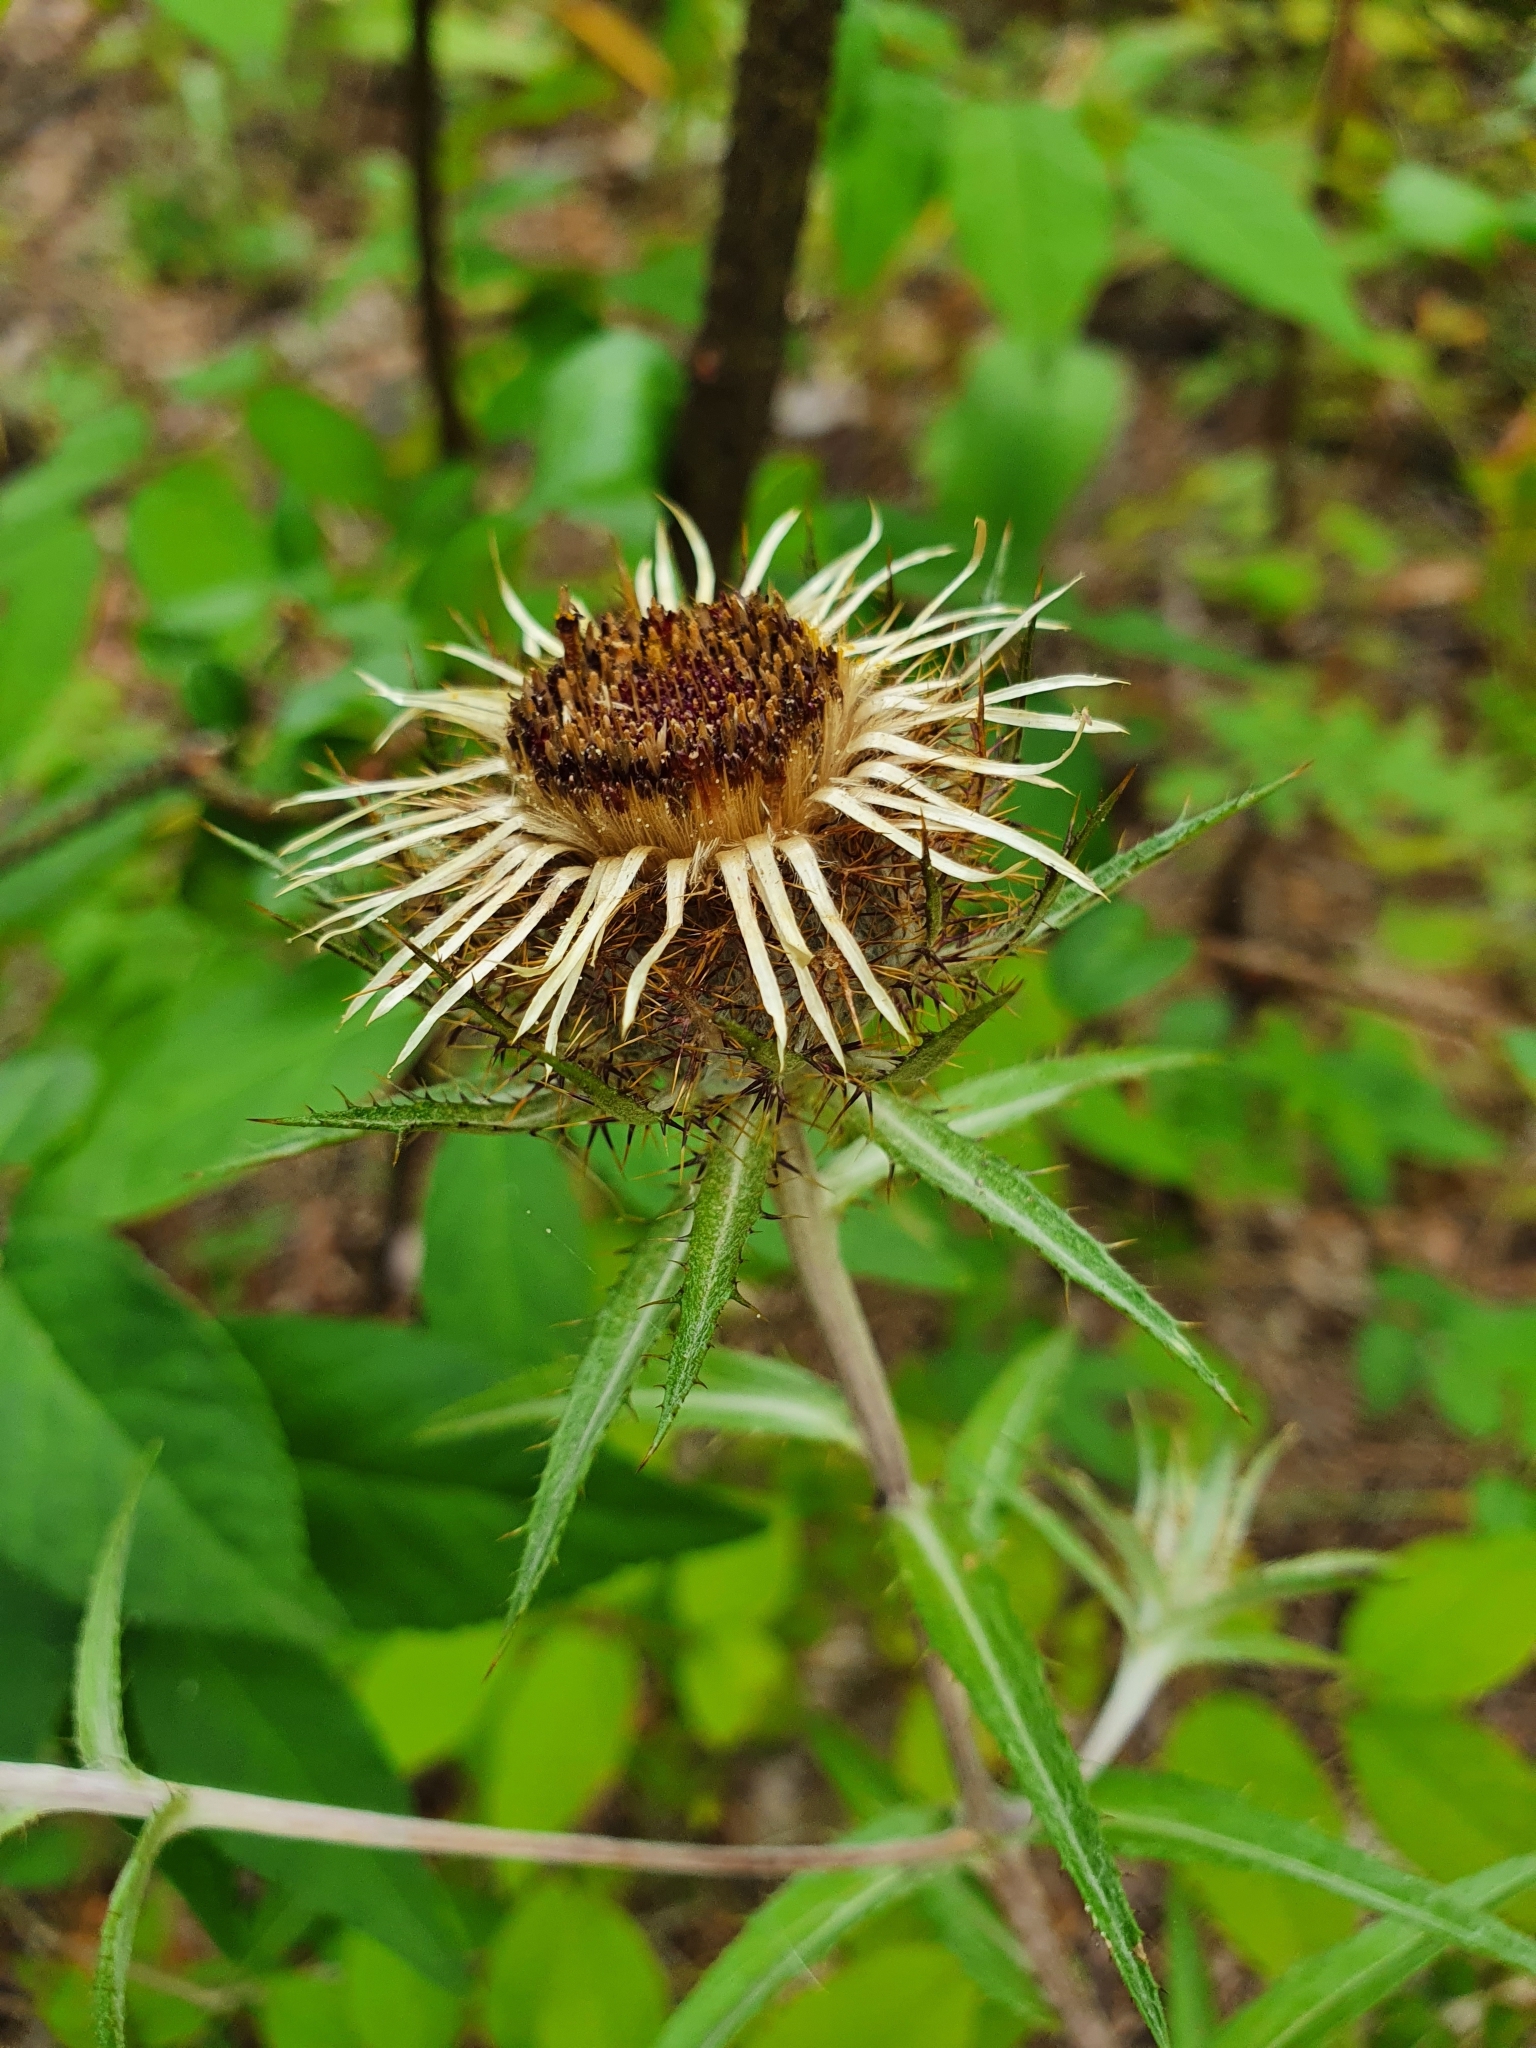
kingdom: Plantae
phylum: Tracheophyta
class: Magnoliopsida
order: Asterales
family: Asteraceae
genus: Carlina
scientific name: Carlina biebersteinii
